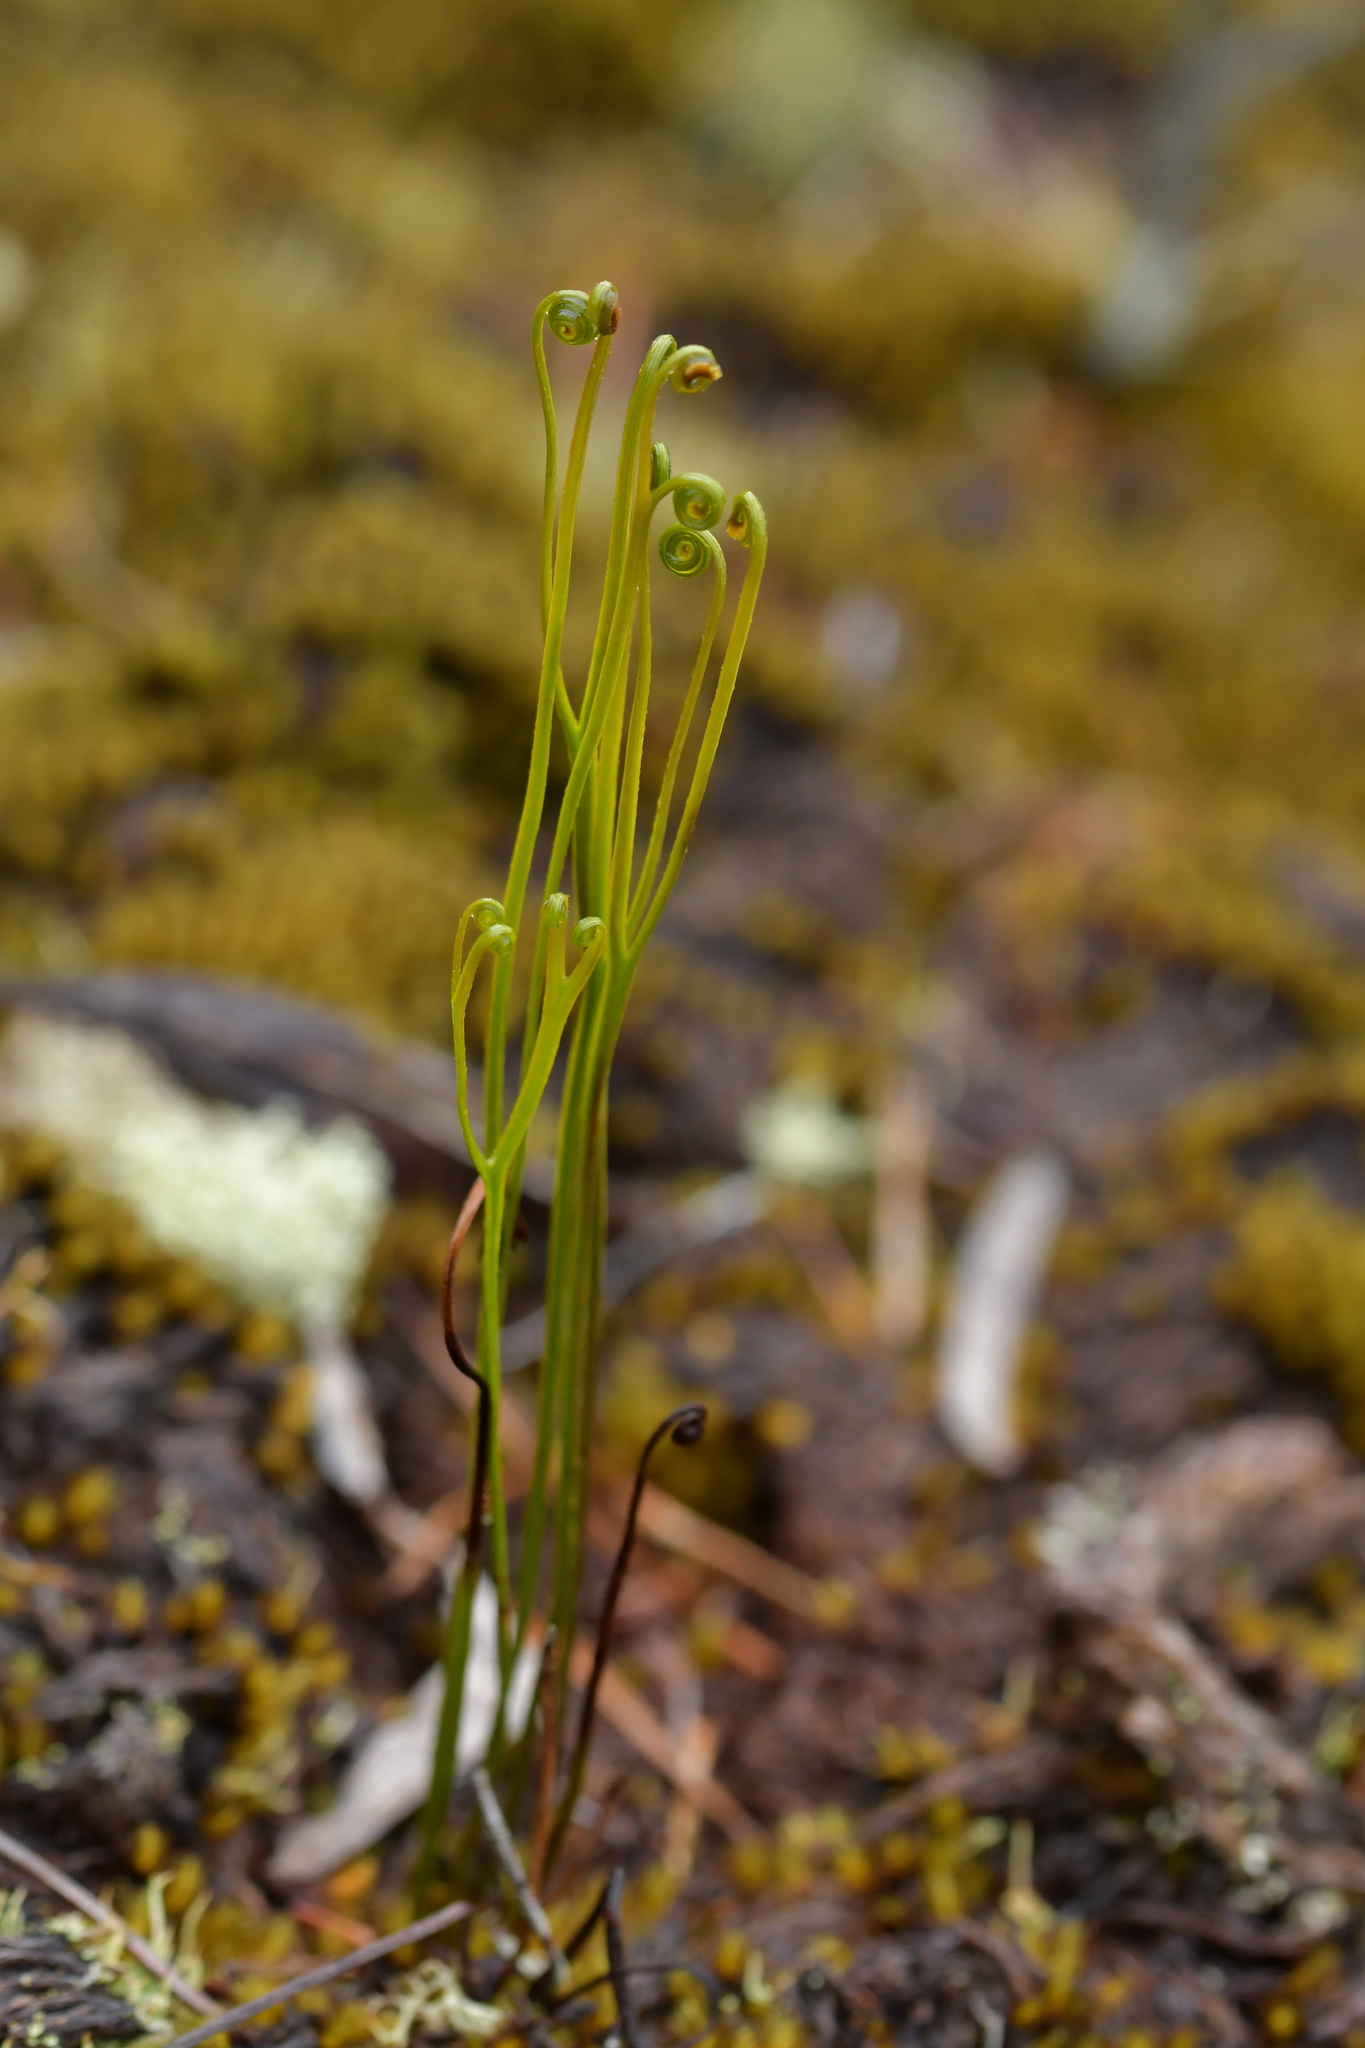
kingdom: Plantae
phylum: Tracheophyta
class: Polypodiopsida
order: Schizaeales
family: Schizaeaceae
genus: Schizaea
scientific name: Schizaea bifida
